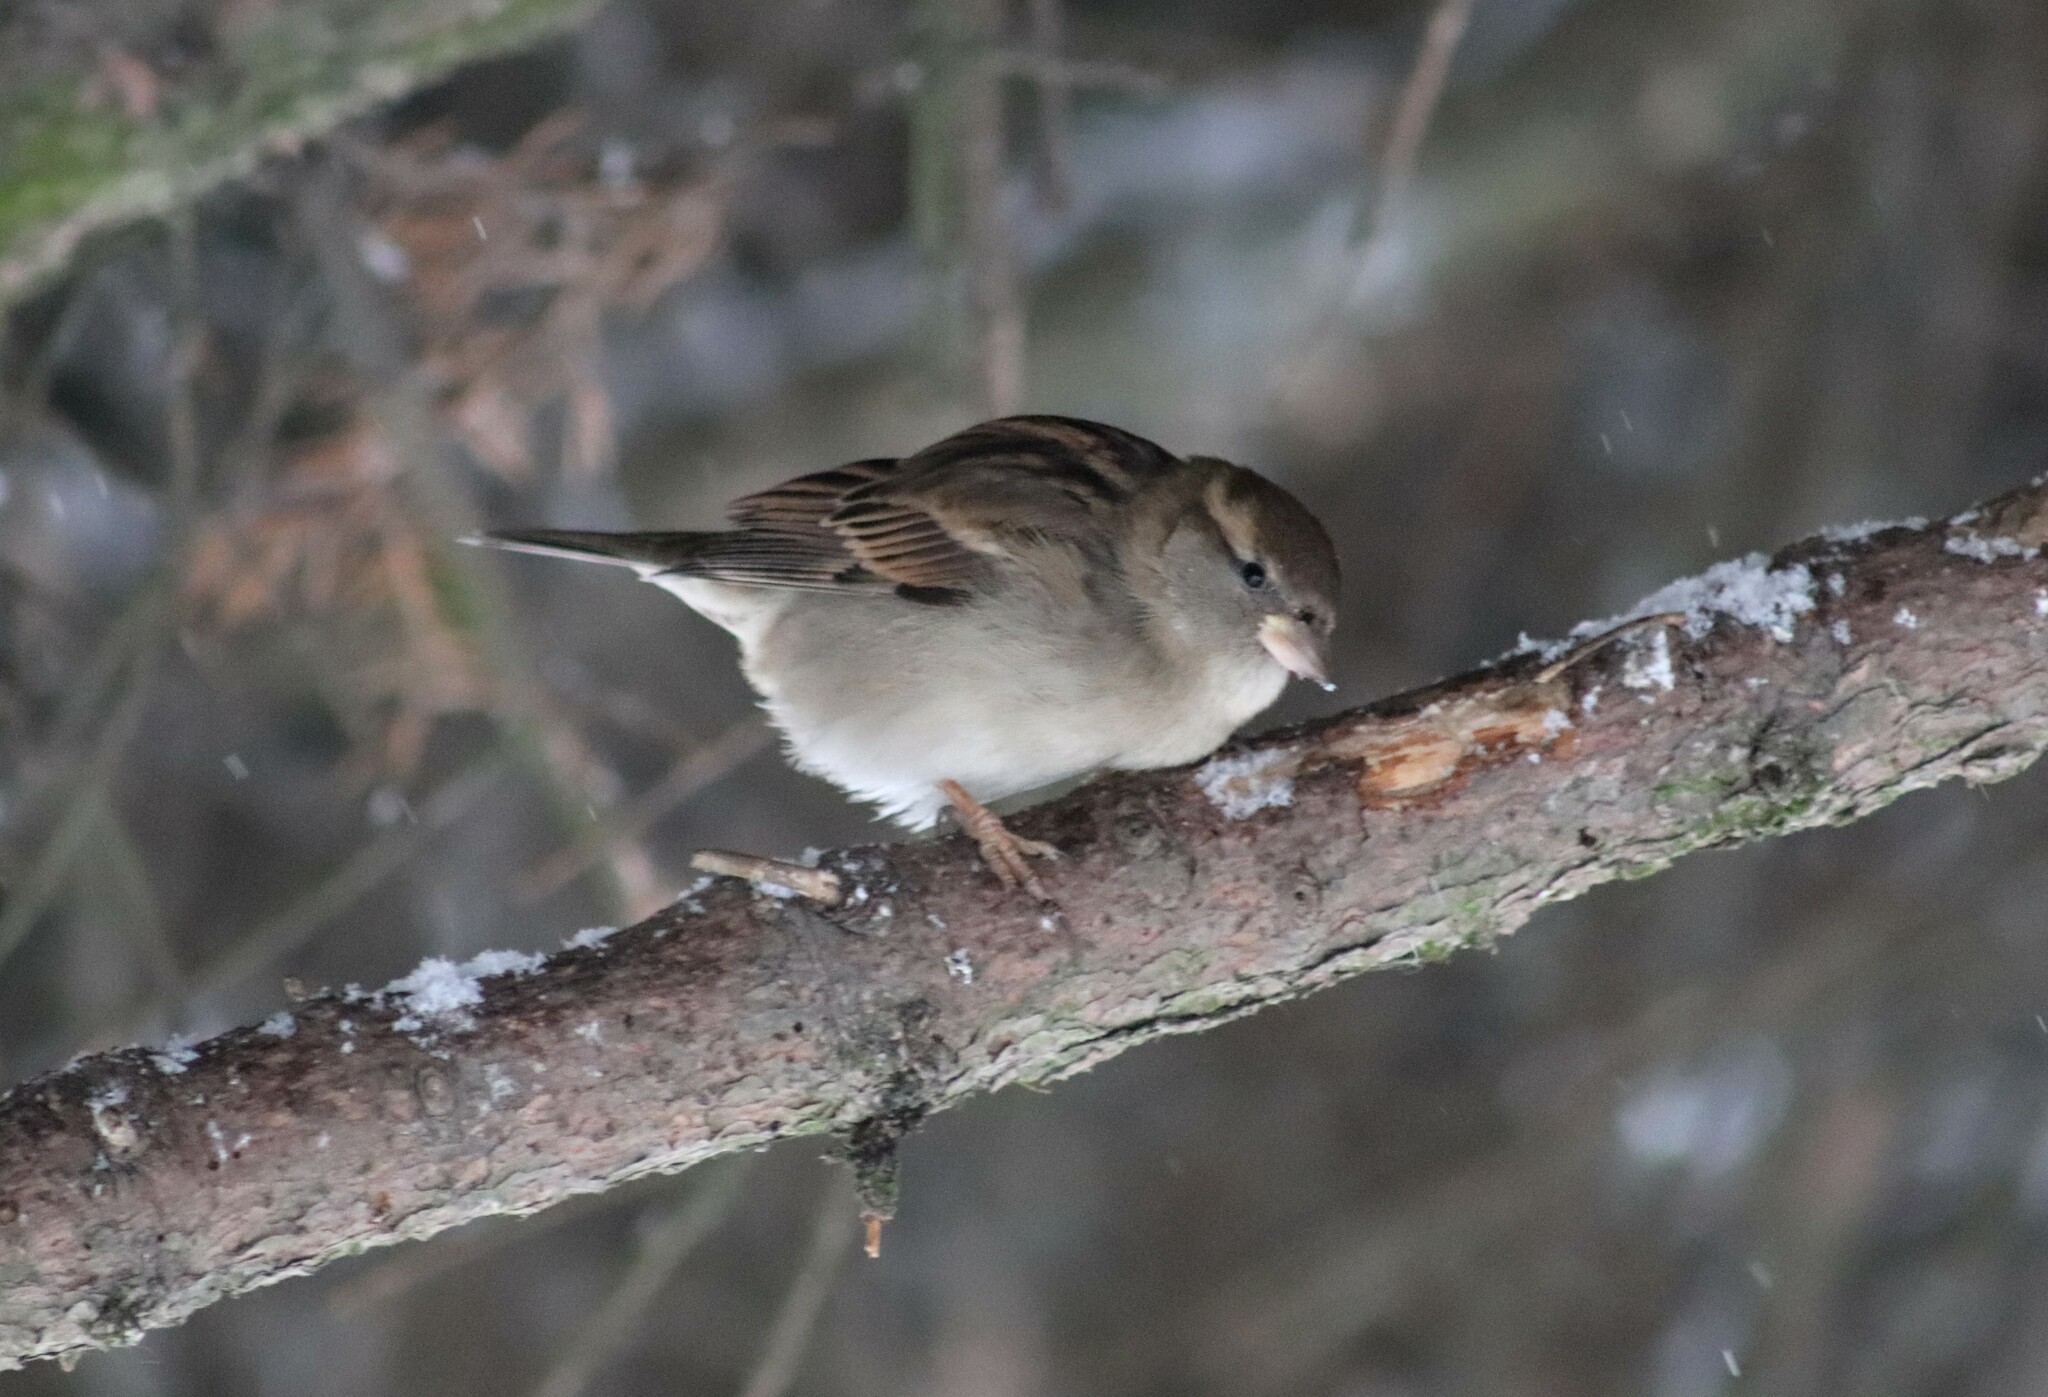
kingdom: Animalia
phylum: Chordata
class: Aves
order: Passeriformes
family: Passeridae
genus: Passer
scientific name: Passer domesticus
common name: House sparrow
